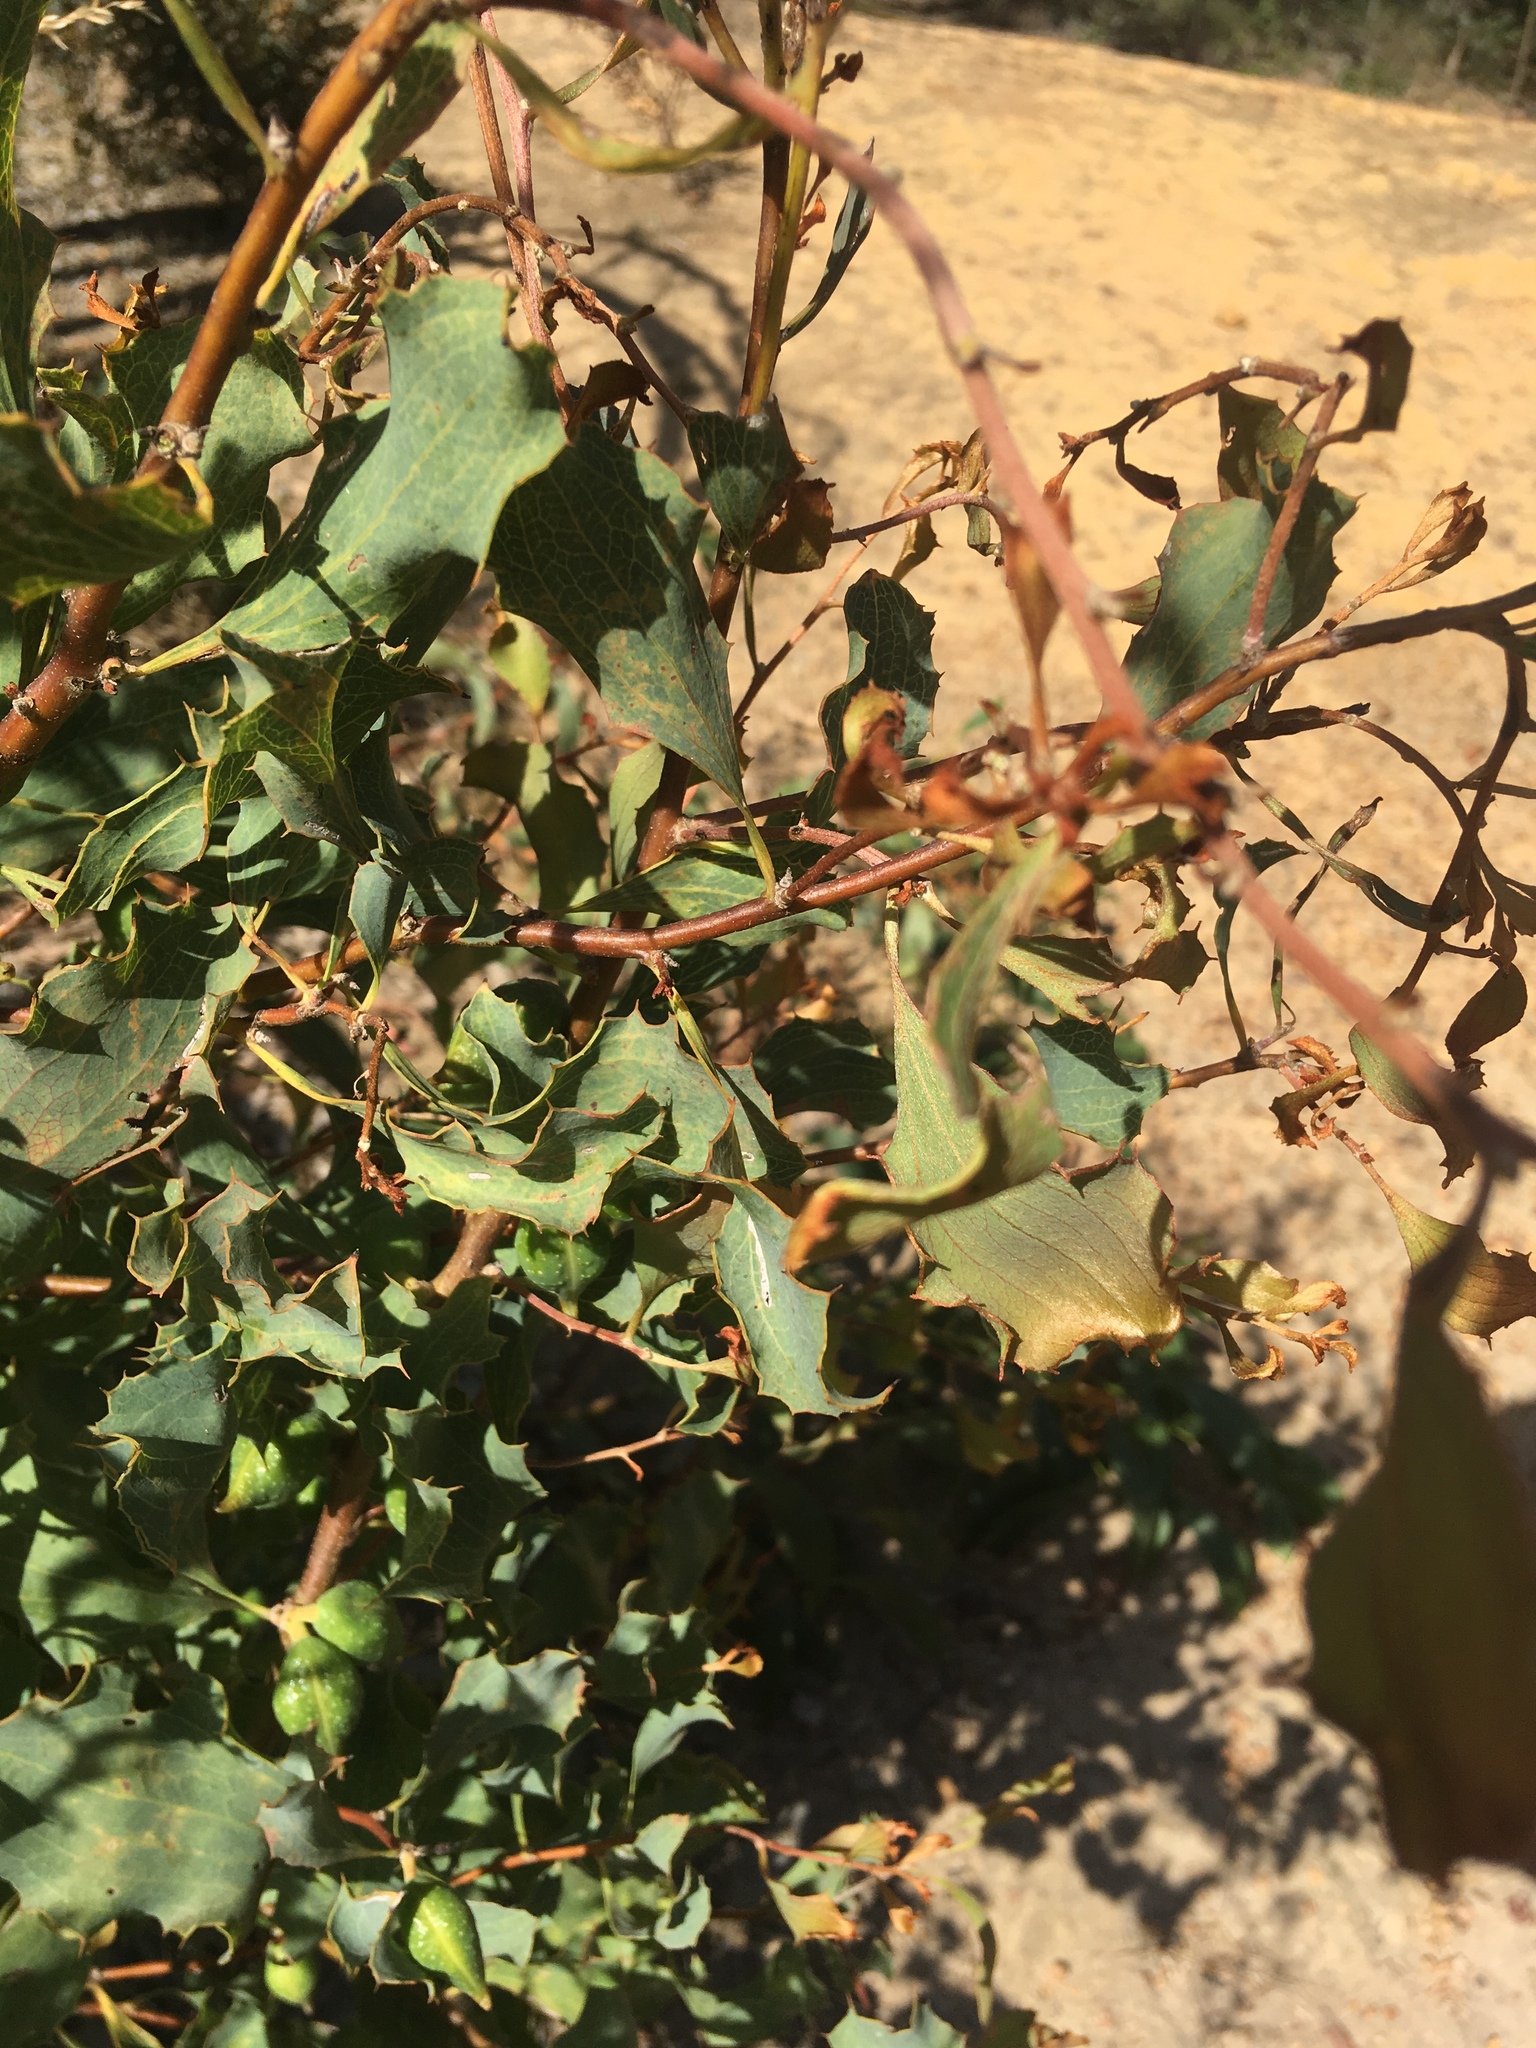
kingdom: Plantae
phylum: Tracheophyta
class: Magnoliopsida
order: Proteales
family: Proteaceae
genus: Hakea
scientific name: Hakea undulata
